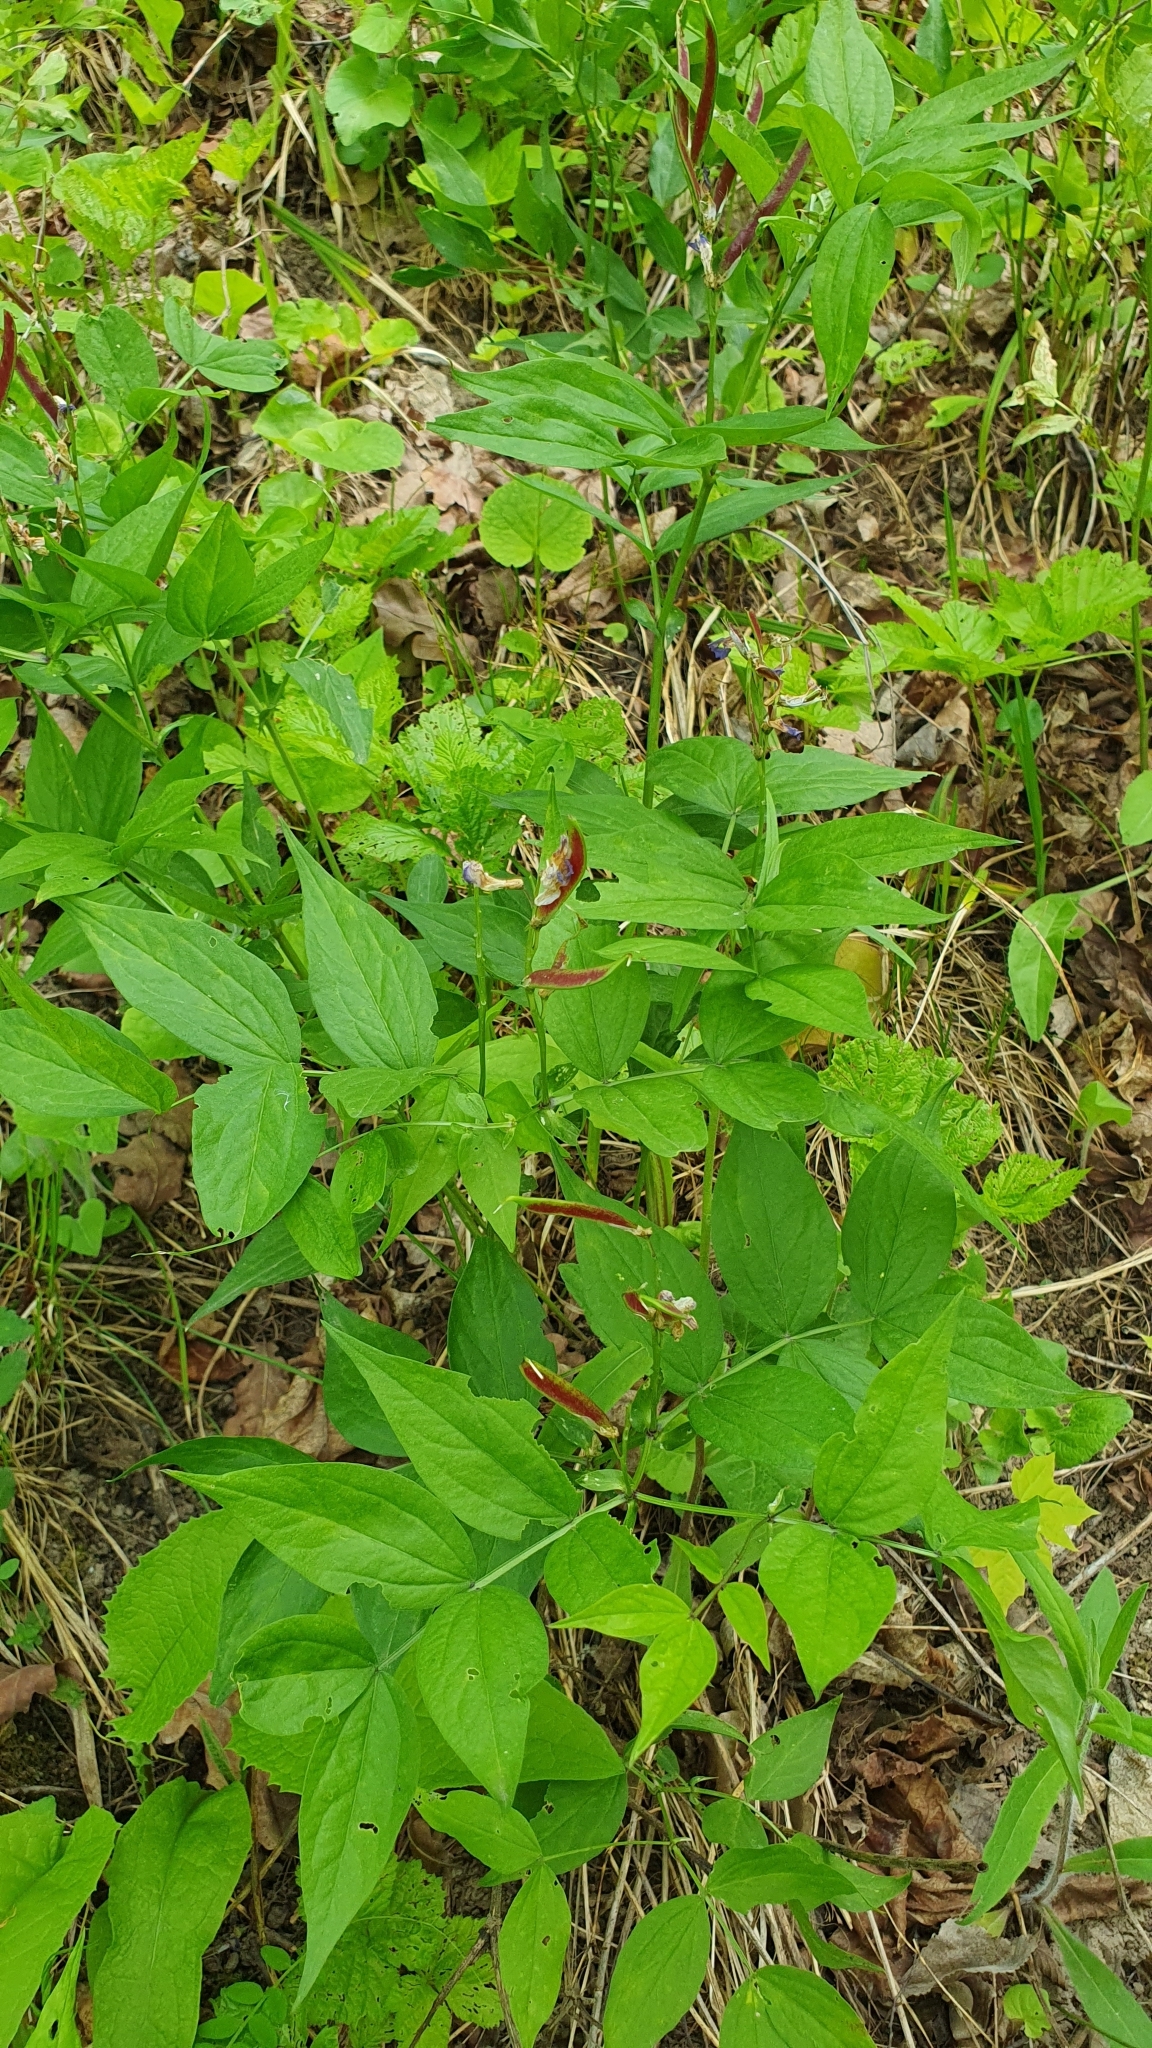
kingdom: Plantae
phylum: Tracheophyta
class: Magnoliopsida
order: Fabales
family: Fabaceae
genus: Lathyrus
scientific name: Lathyrus vernus
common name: Spring pea
